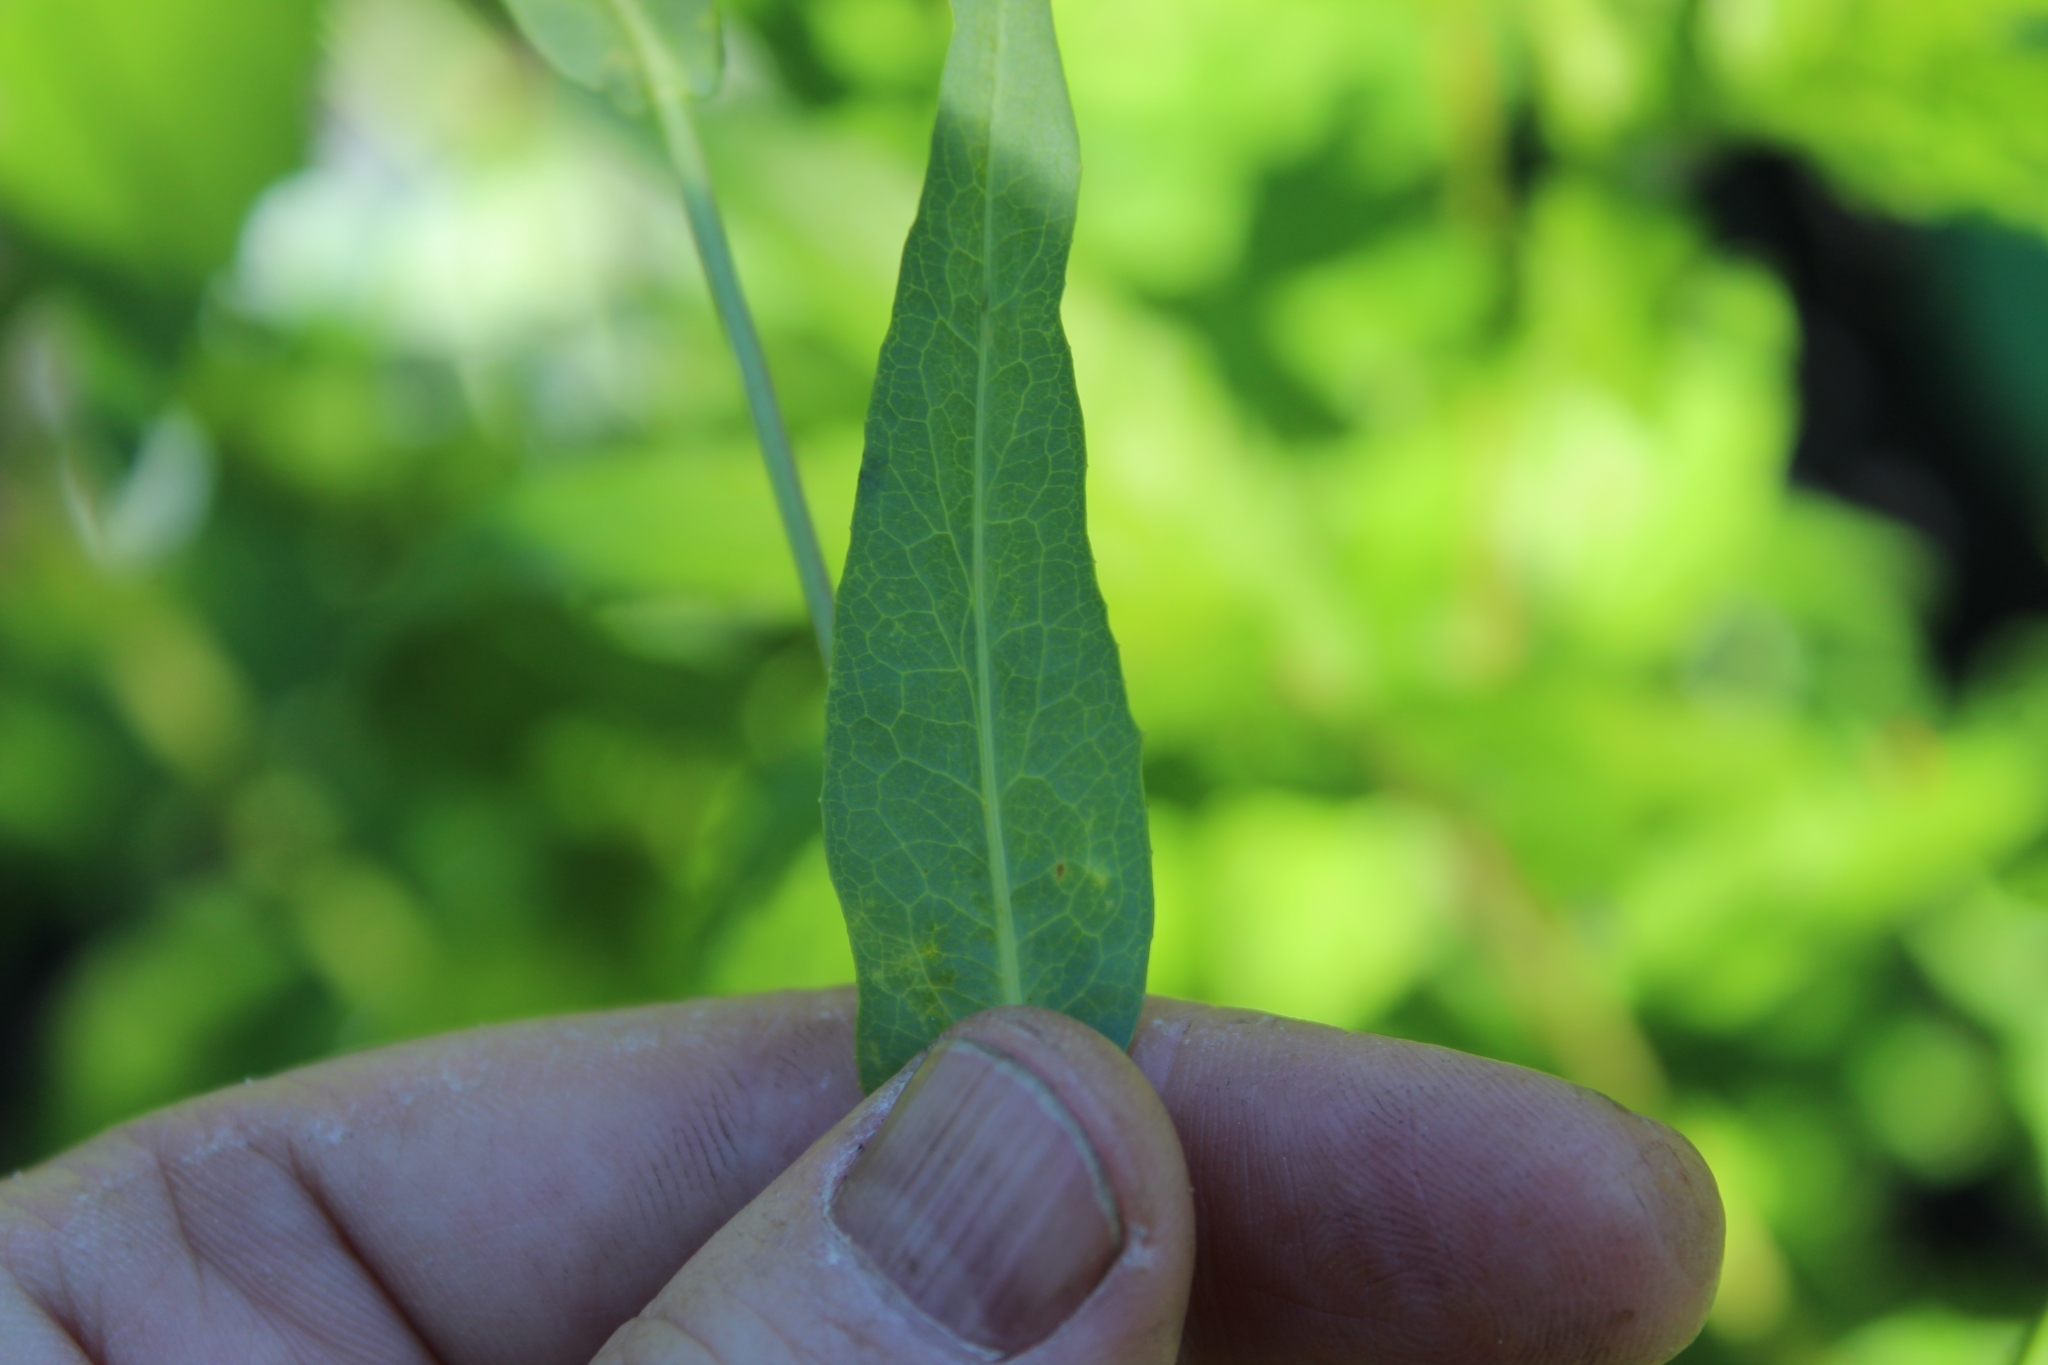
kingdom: Plantae
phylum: Tracheophyta
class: Magnoliopsida
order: Asterales
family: Asteraceae
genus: Lactuca
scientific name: Lactuca sibirica
